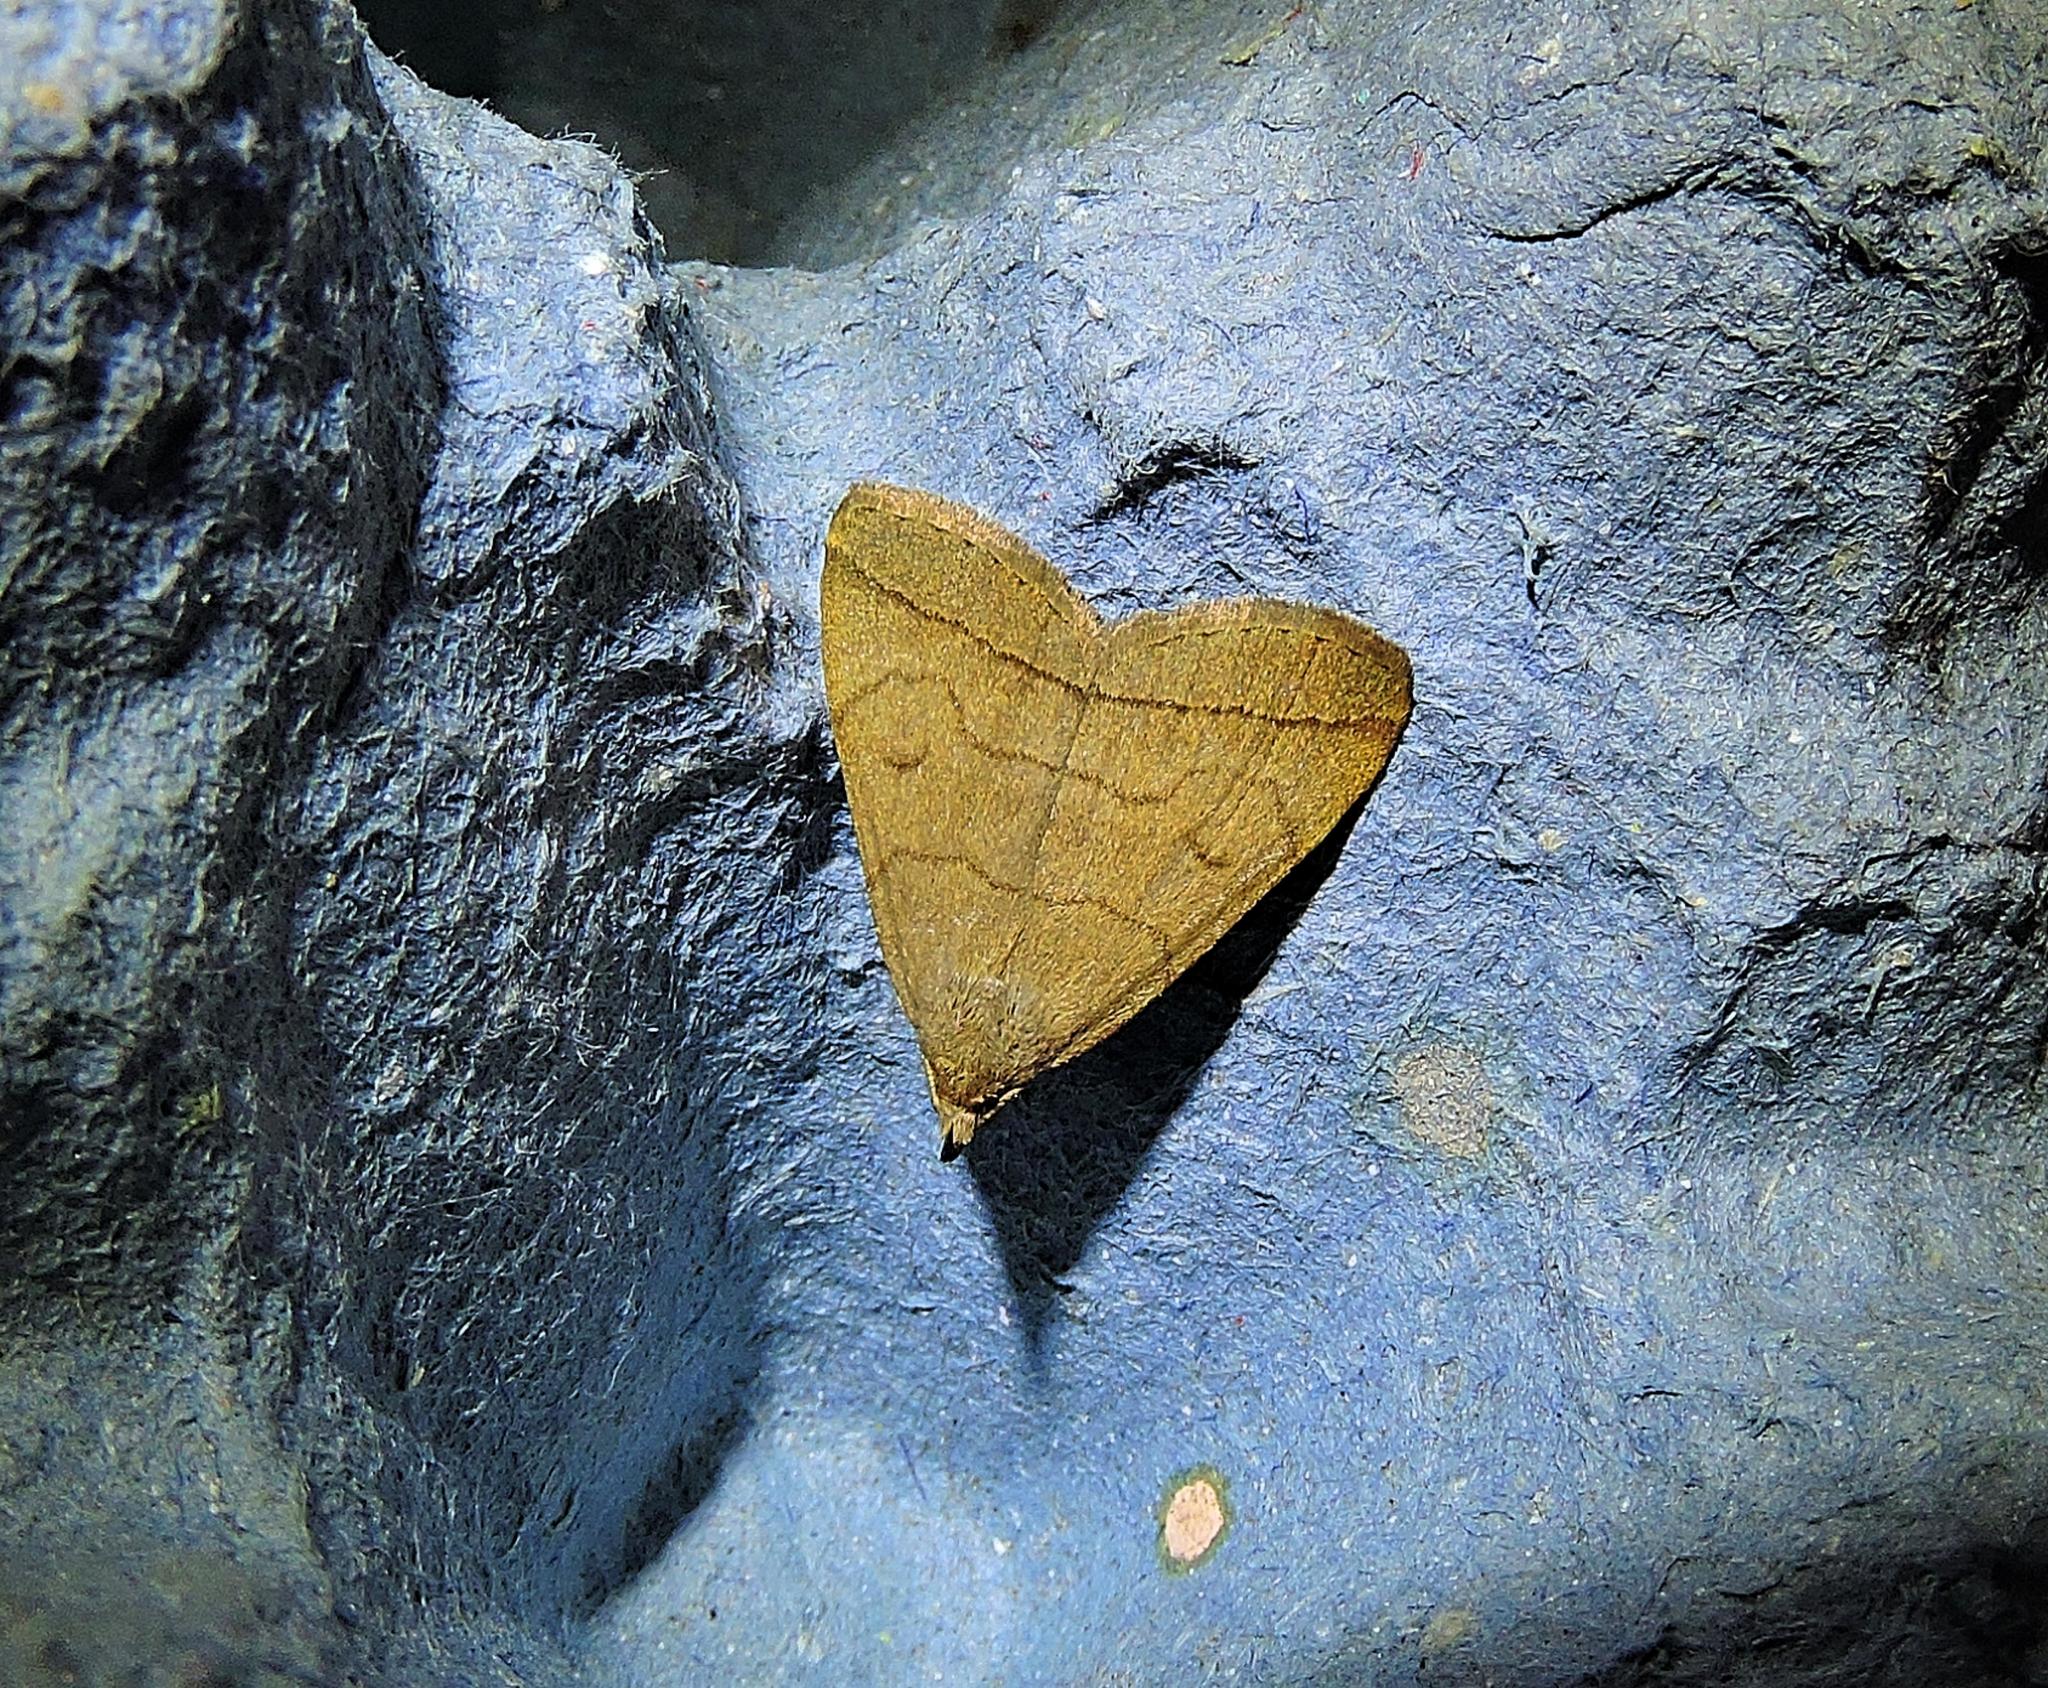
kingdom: Animalia
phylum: Arthropoda
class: Insecta
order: Lepidoptera
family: Erebidae
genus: Herminia
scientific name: Herminia tarsipennalis
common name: Fan-foot
